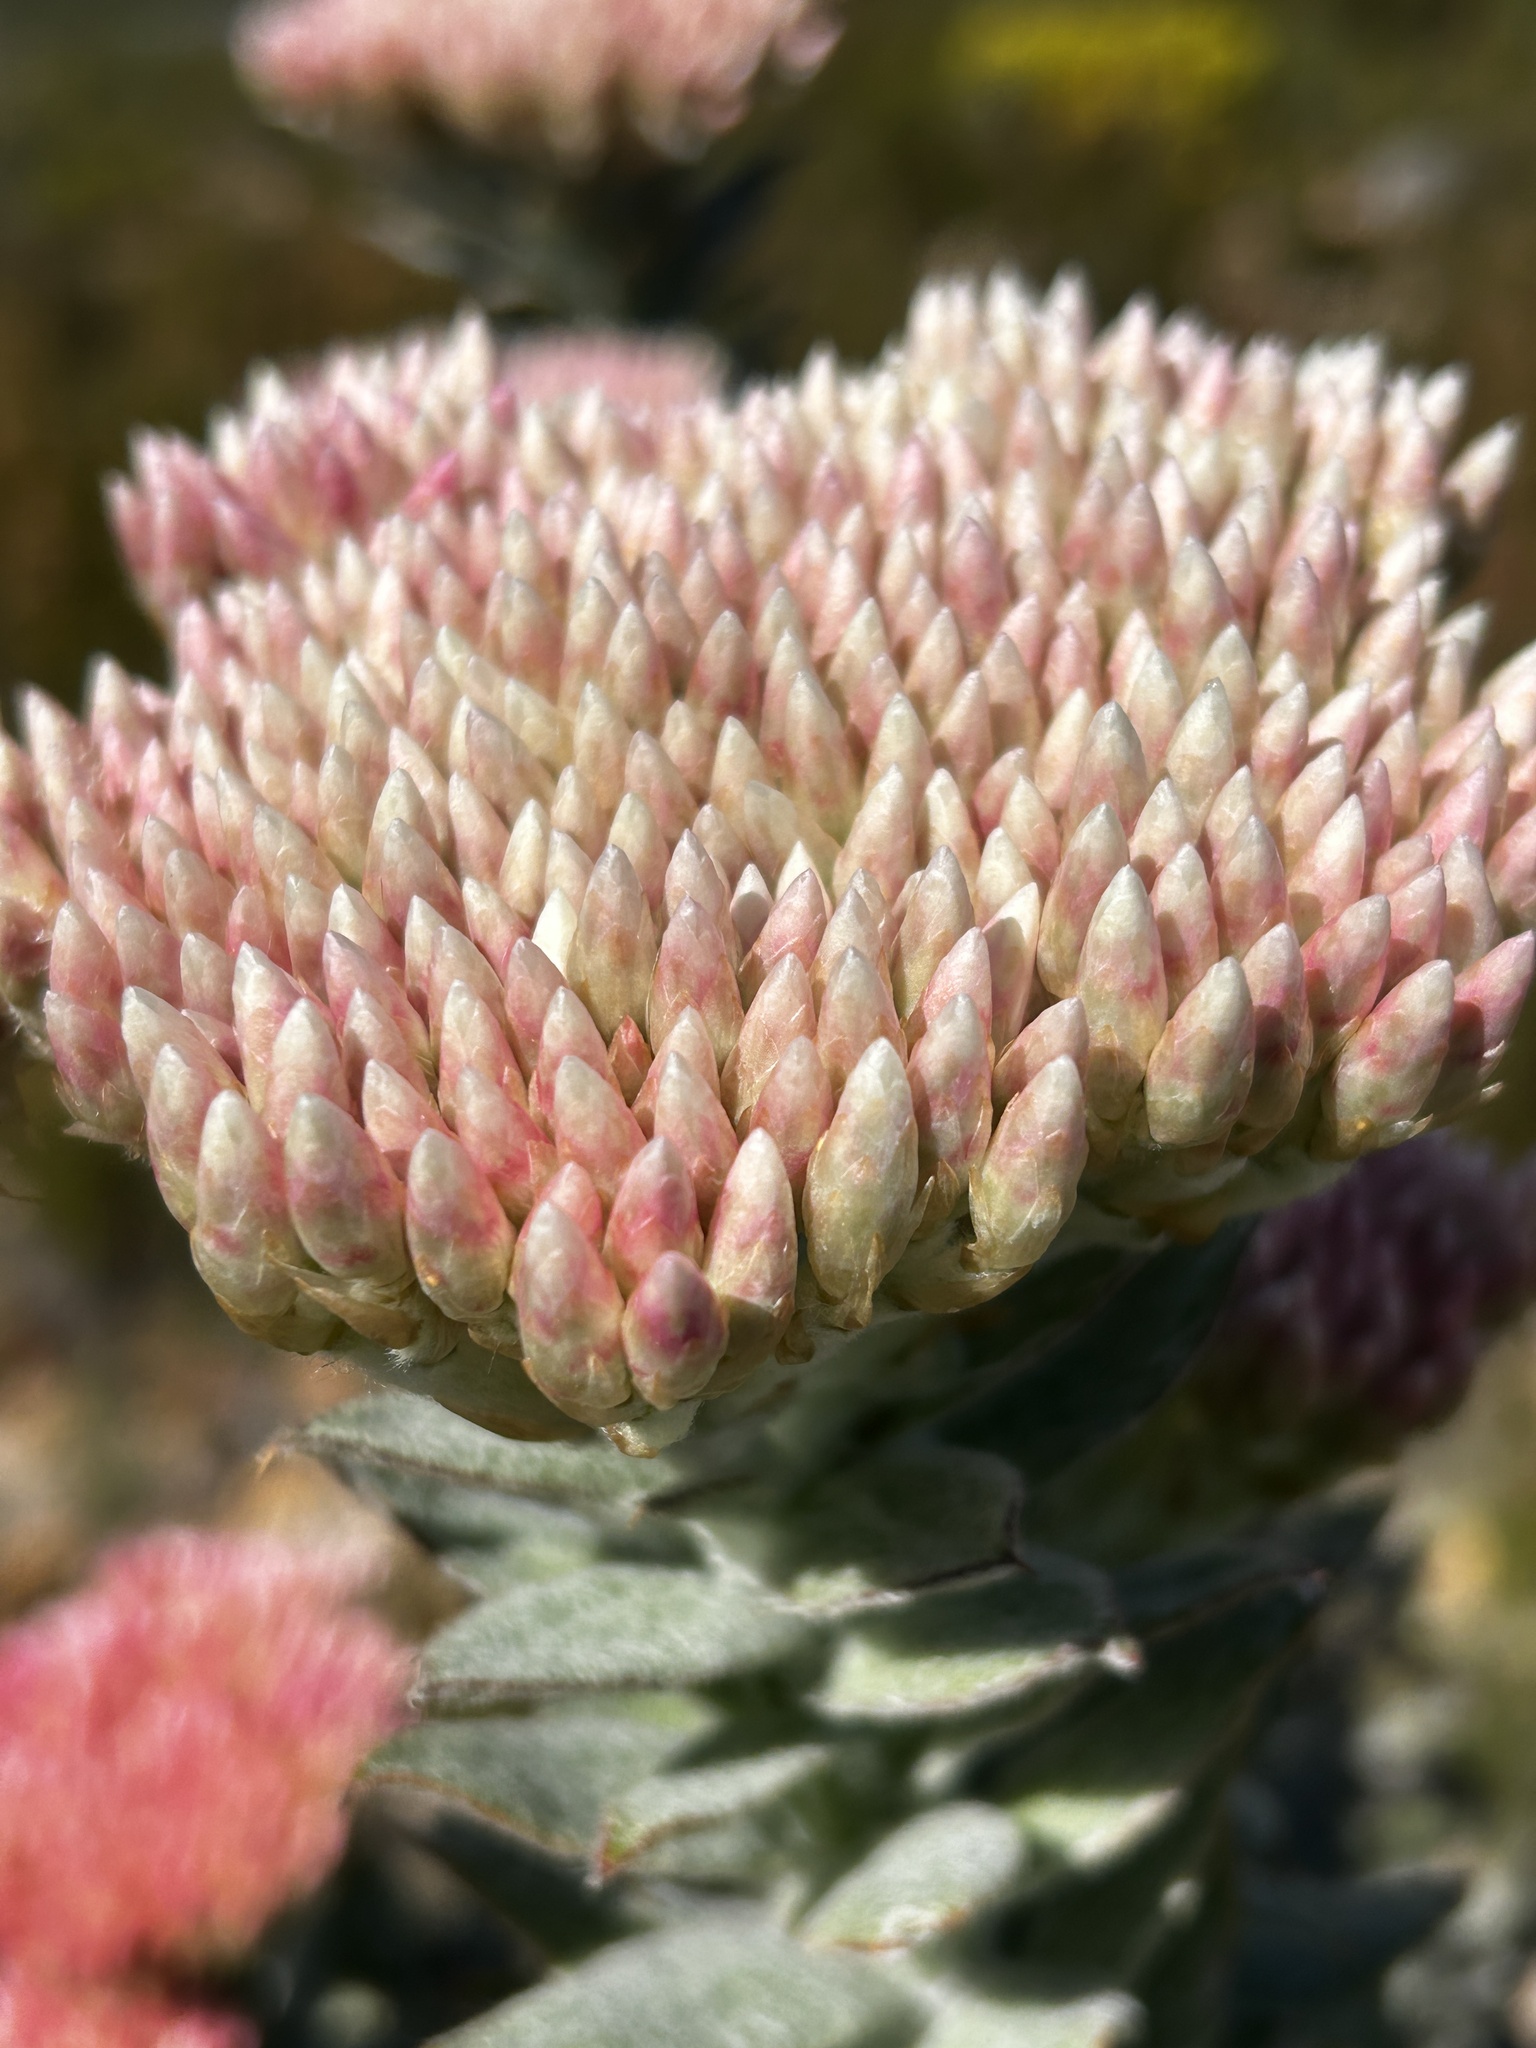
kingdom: Plantae
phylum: Tracheophyta
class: Magnoliopsida
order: Asterales
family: Asteraceae
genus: Syncarpha
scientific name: Syncarpha milleflora
